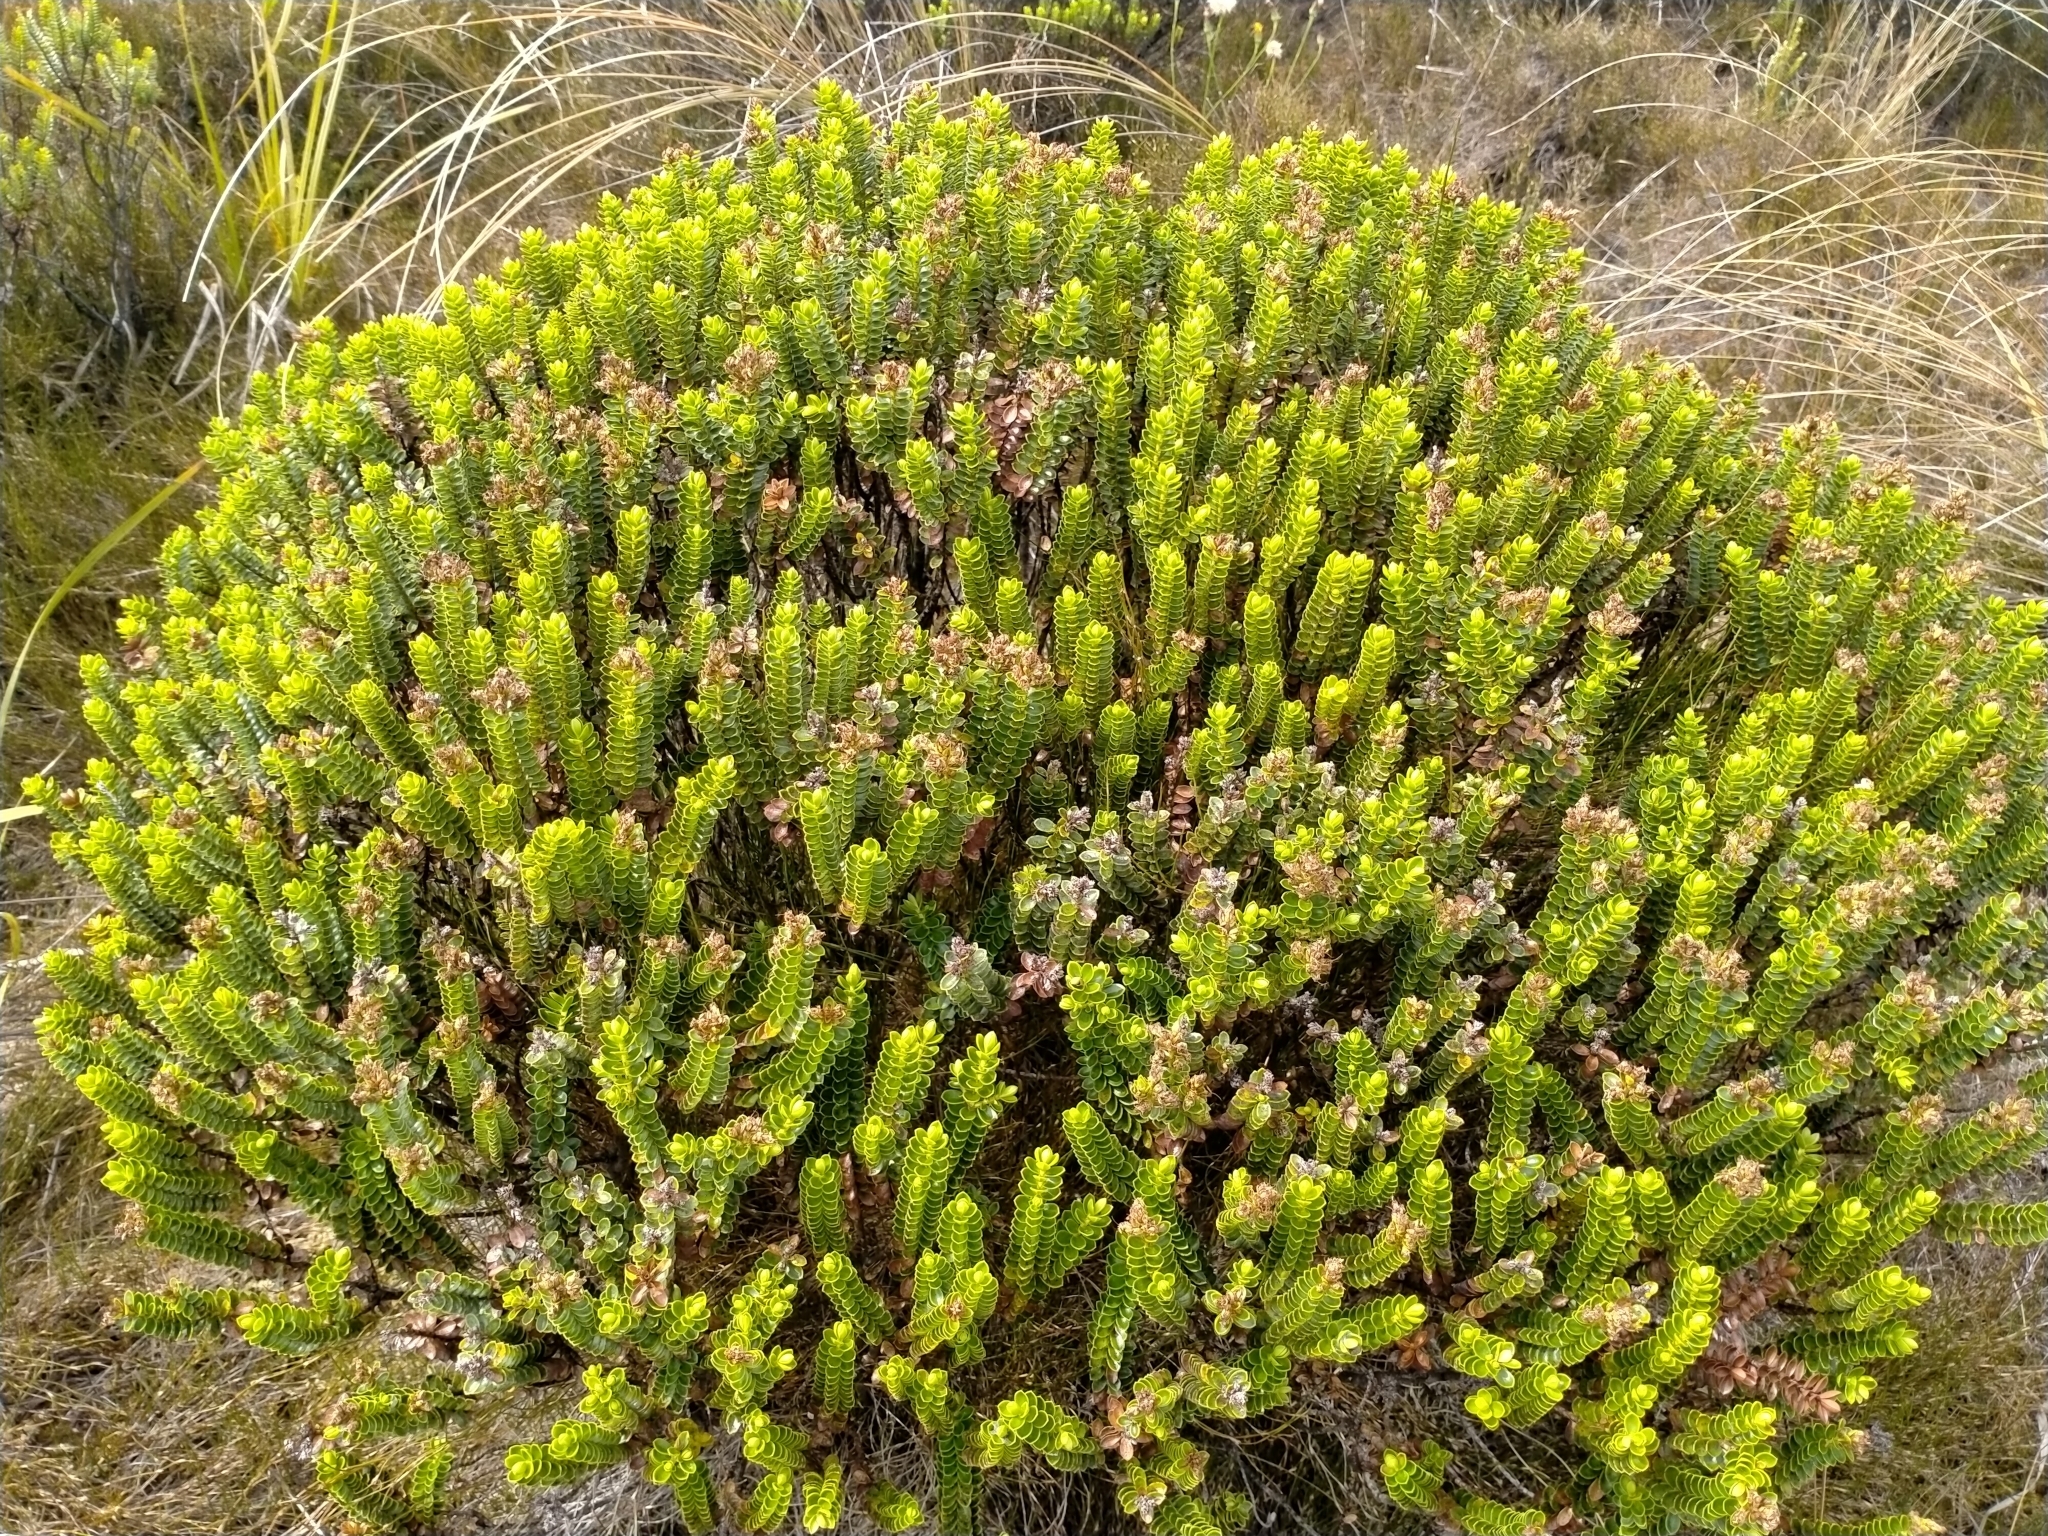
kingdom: Plantae
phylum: Tracheophyta
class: Magnoliopsida
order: Lamiales
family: Plantaginaceae
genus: Veronica
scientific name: Veronica odora
